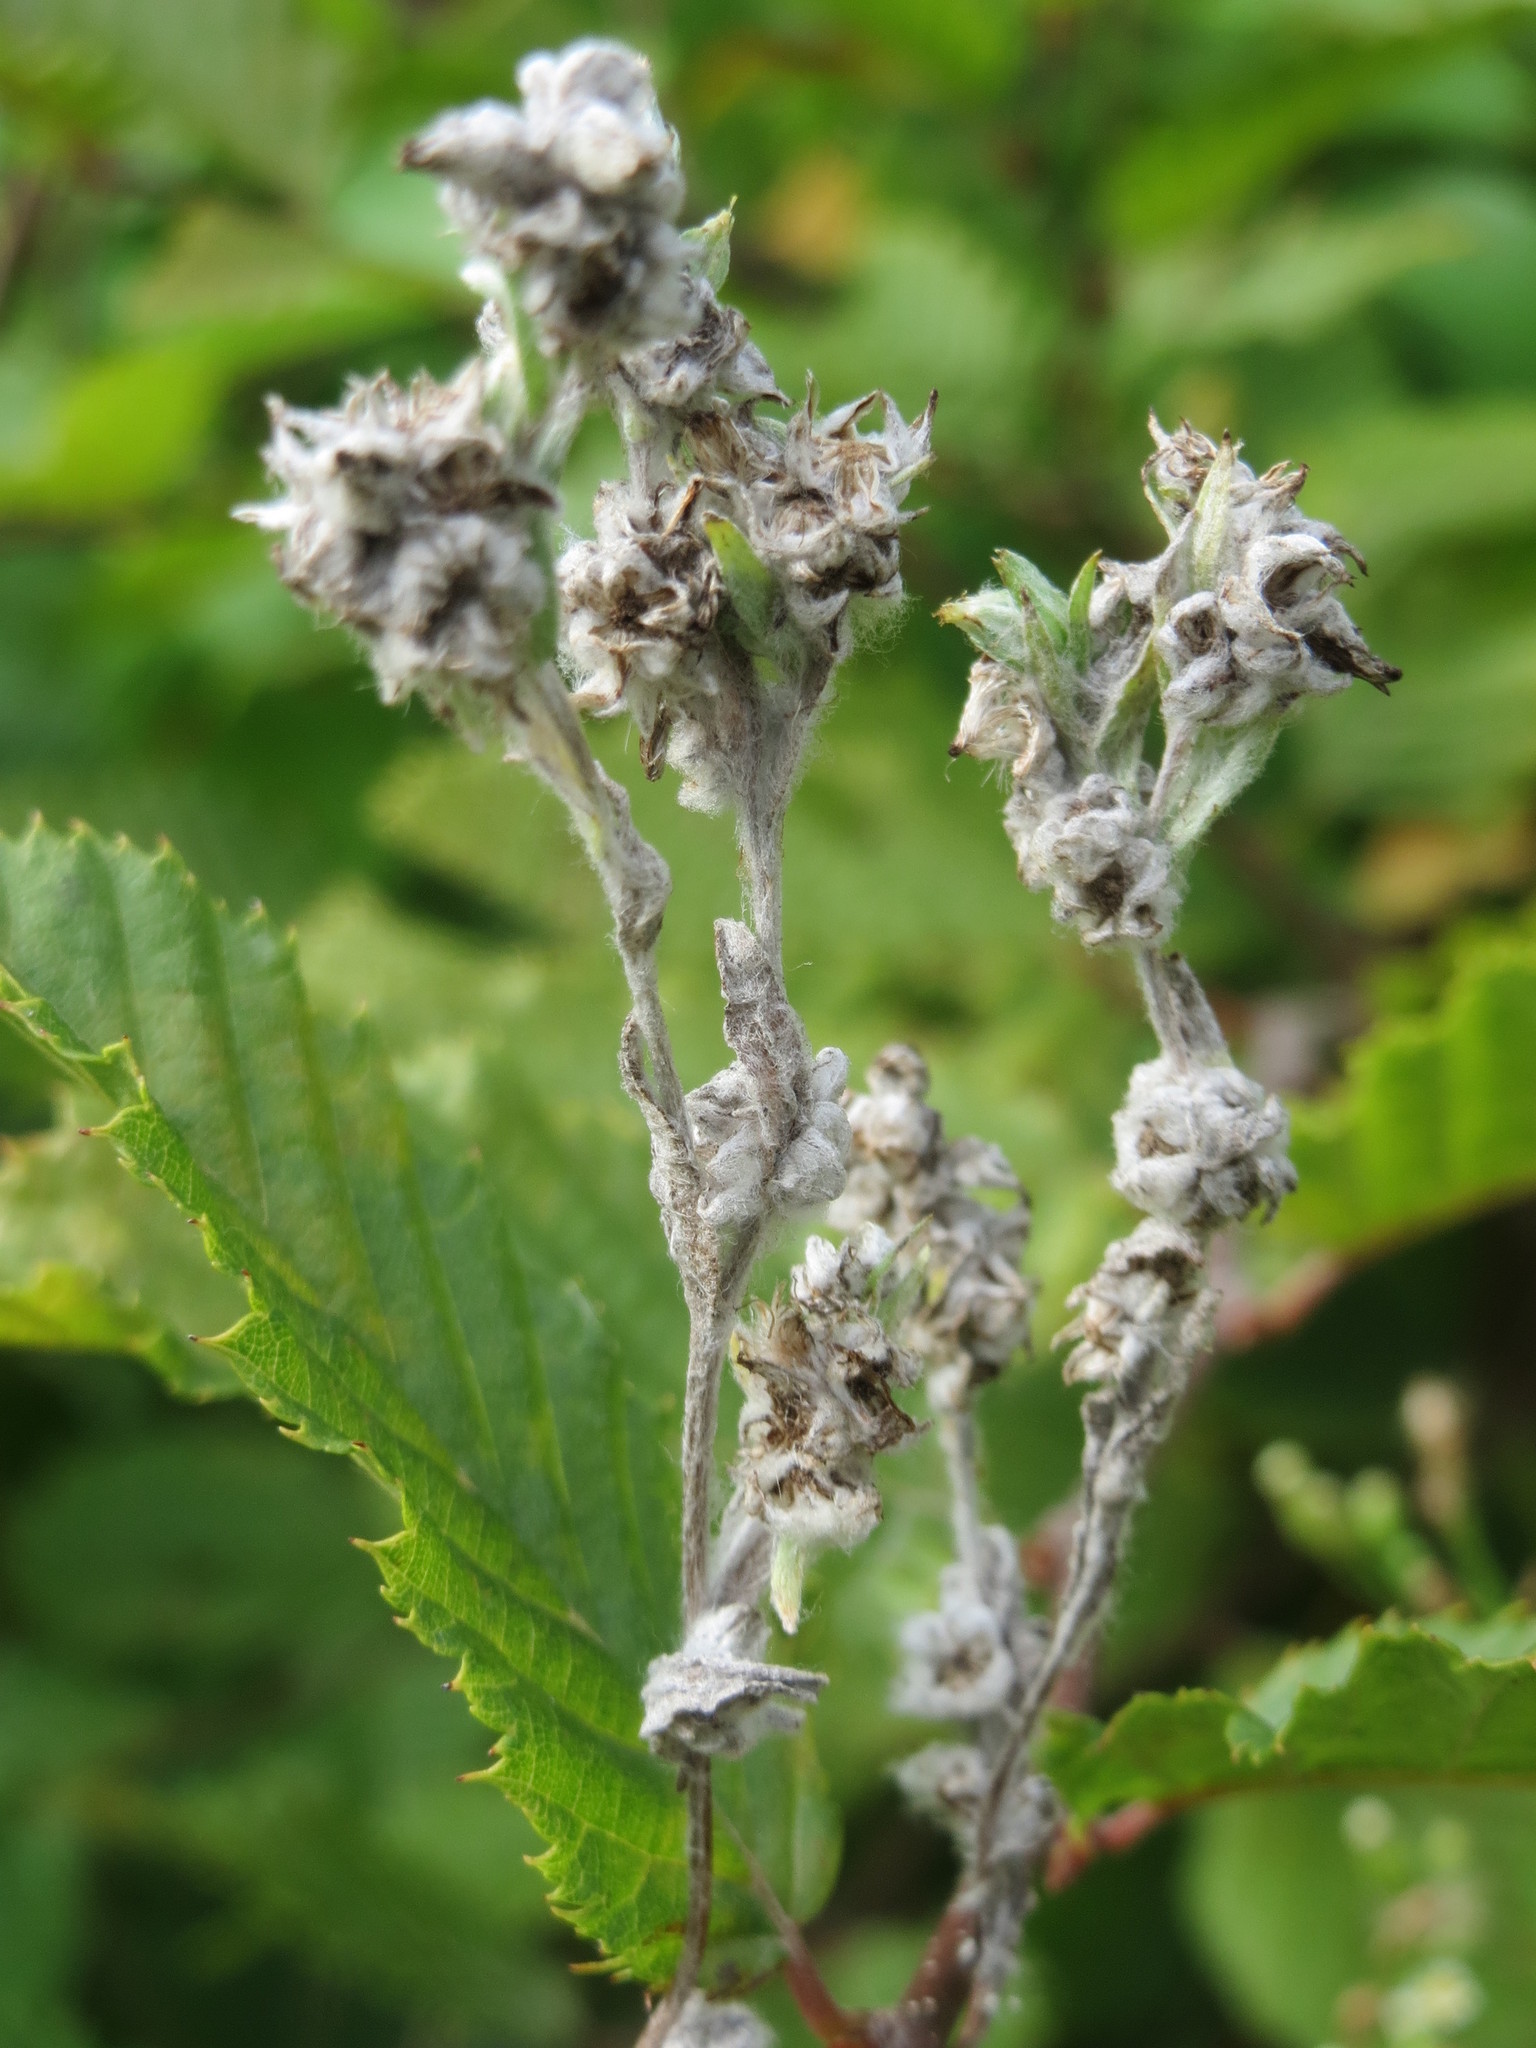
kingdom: Plantae
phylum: Tracheophyta
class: Magnoliopsida
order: Asterales
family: Asteraceae
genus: Filago
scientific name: Filago arvensis
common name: Field cudweed
